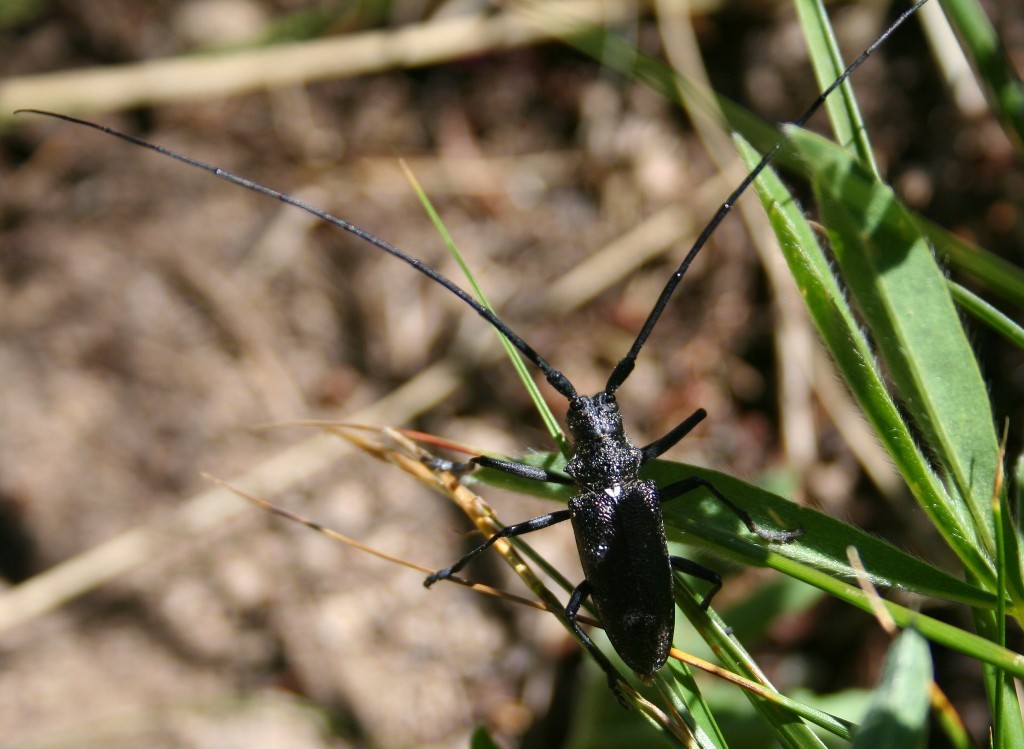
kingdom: Animalia
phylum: Arthropoda
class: Insecta
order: Coleoptera
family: Cerambycidae
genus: Monochamus
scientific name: Monochamus scutellatus
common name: White-spotted sawyer beetle
